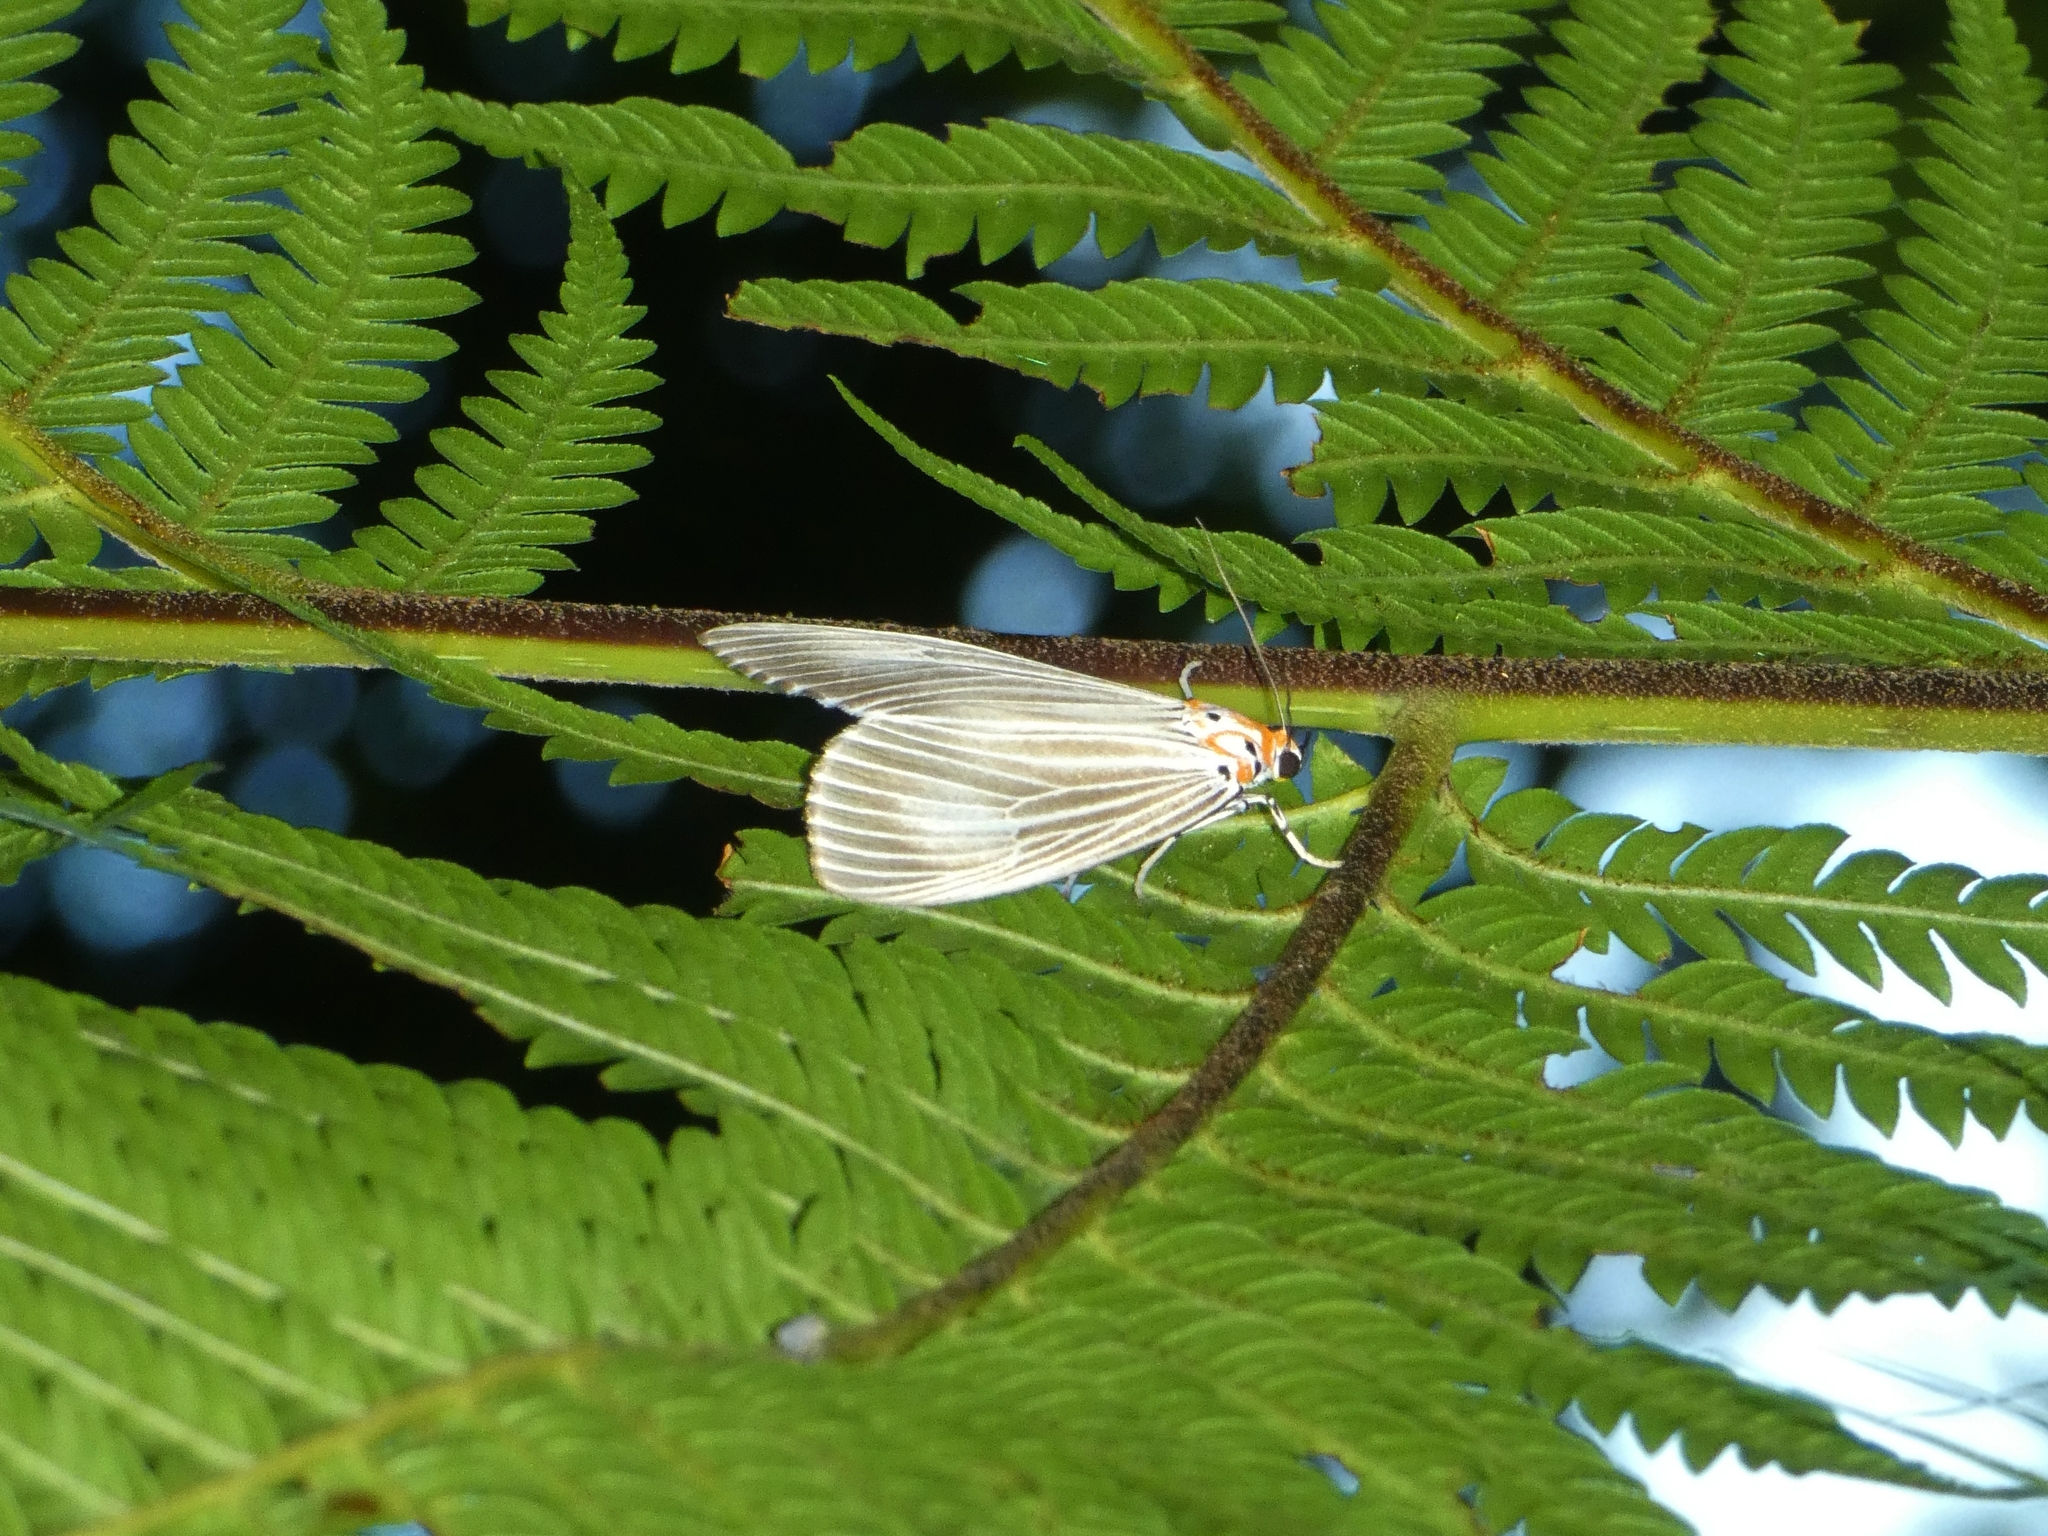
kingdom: Animalia
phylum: Arthropoda
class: Insecta
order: Lepidoptera
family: Erebidae
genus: Neochera
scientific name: Neochera dominia
